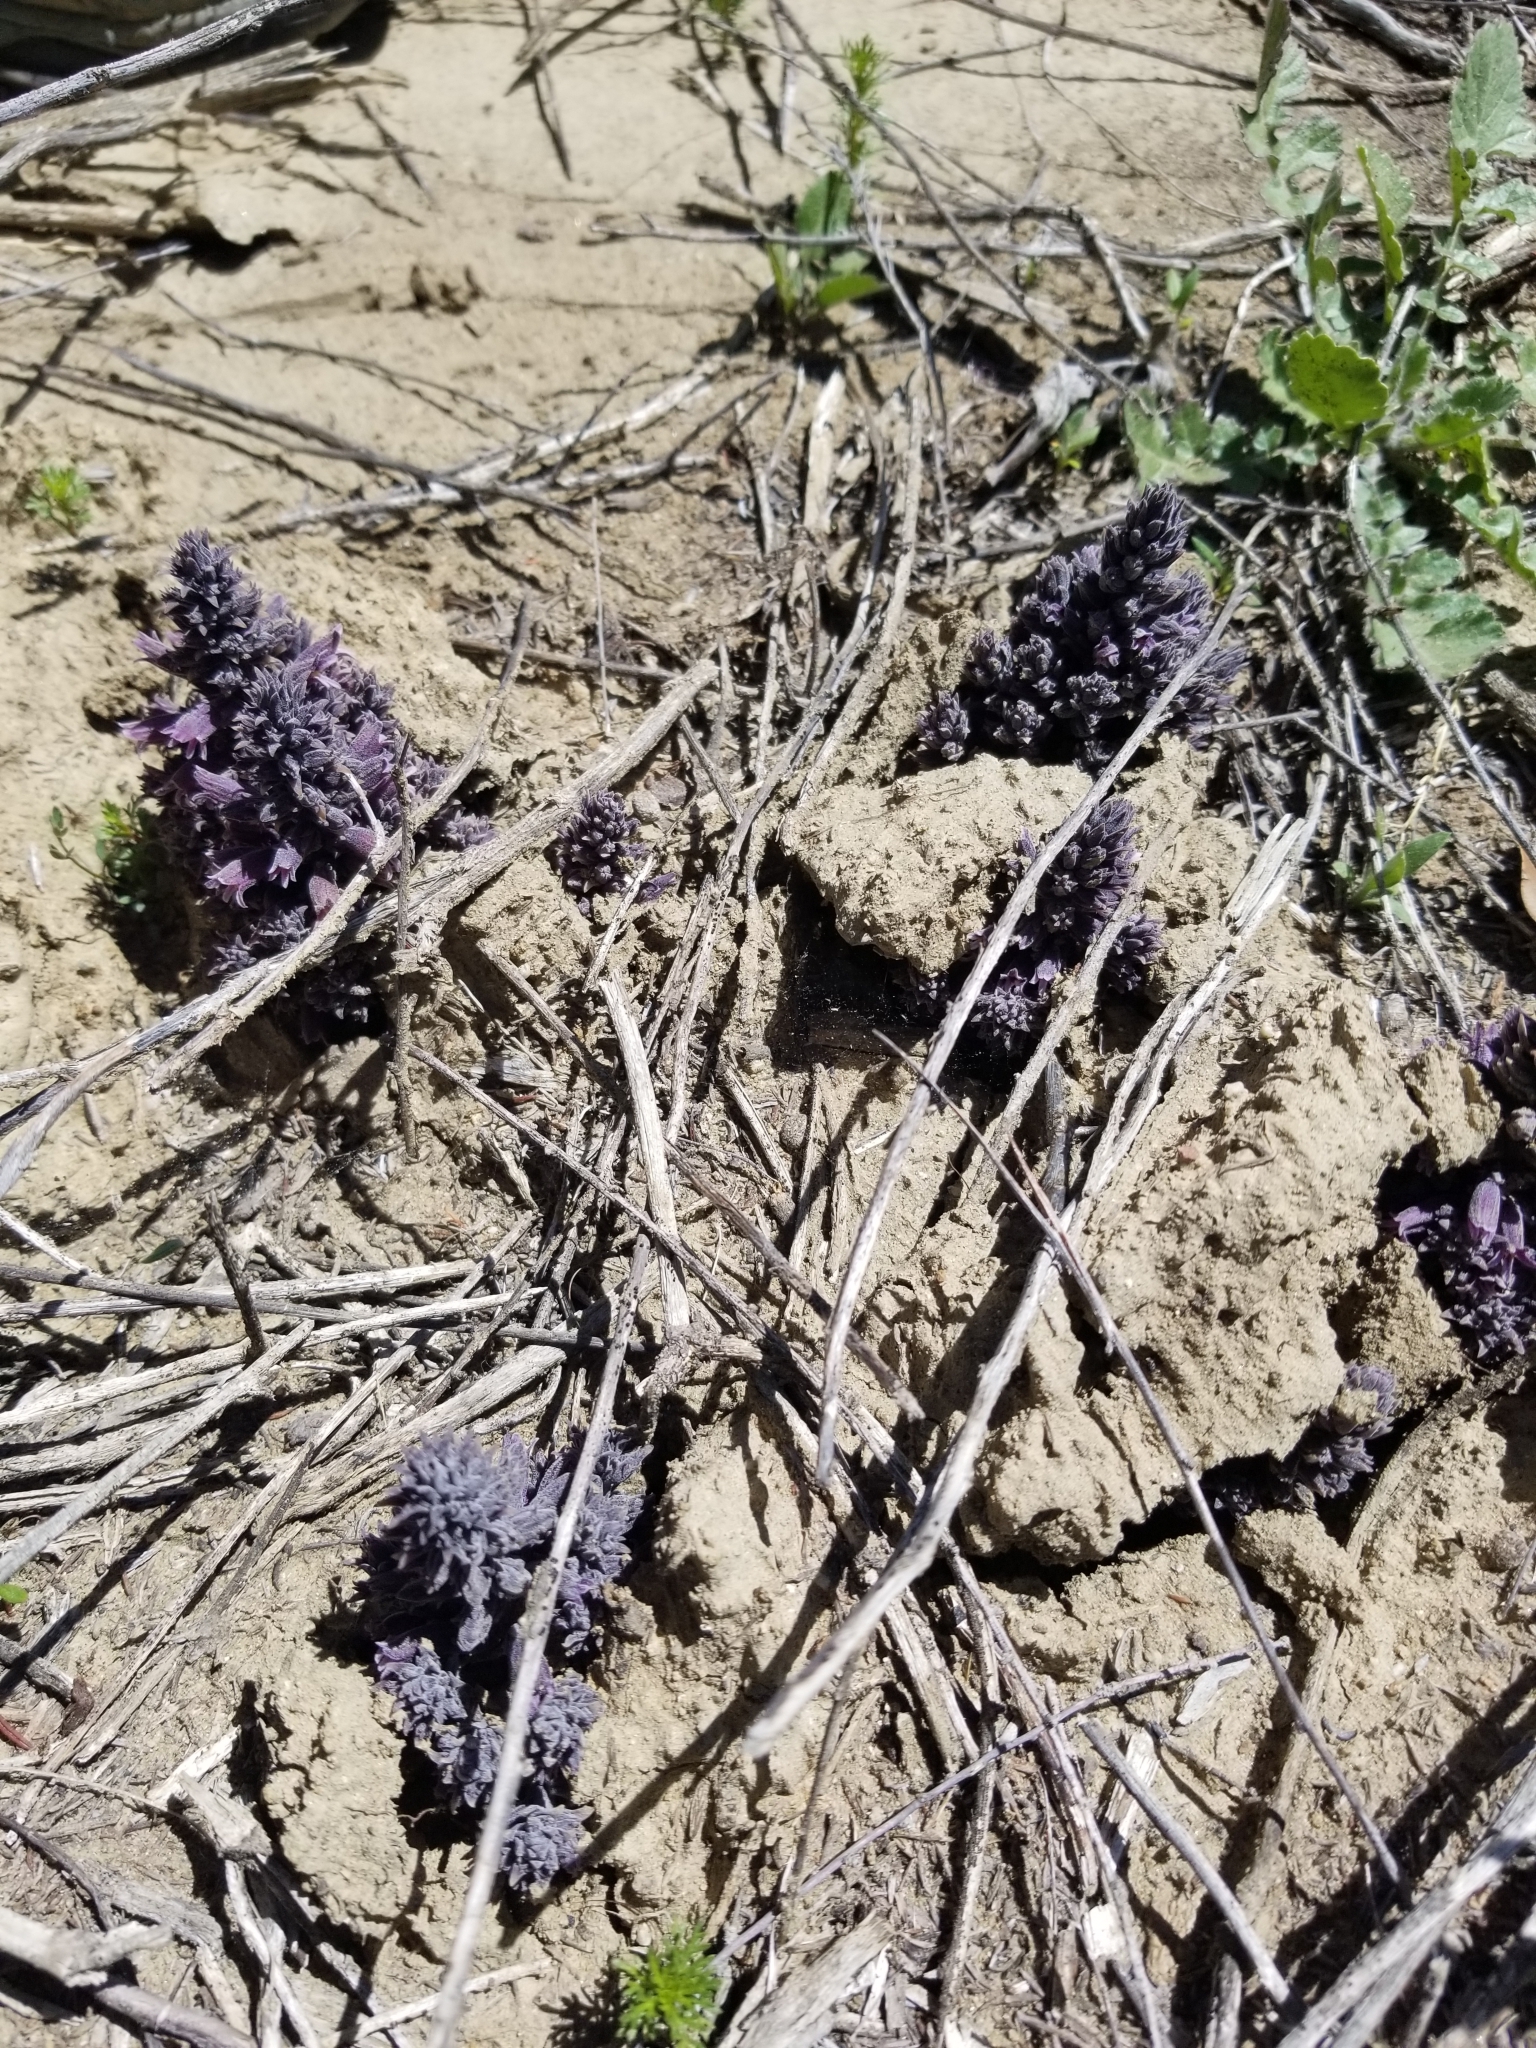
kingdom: Plantae
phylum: Tracheophyta
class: Magnoliopsida
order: Lamiales
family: Orobanchaceae
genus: Aphyllon
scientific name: Aphyllon tuberosum
